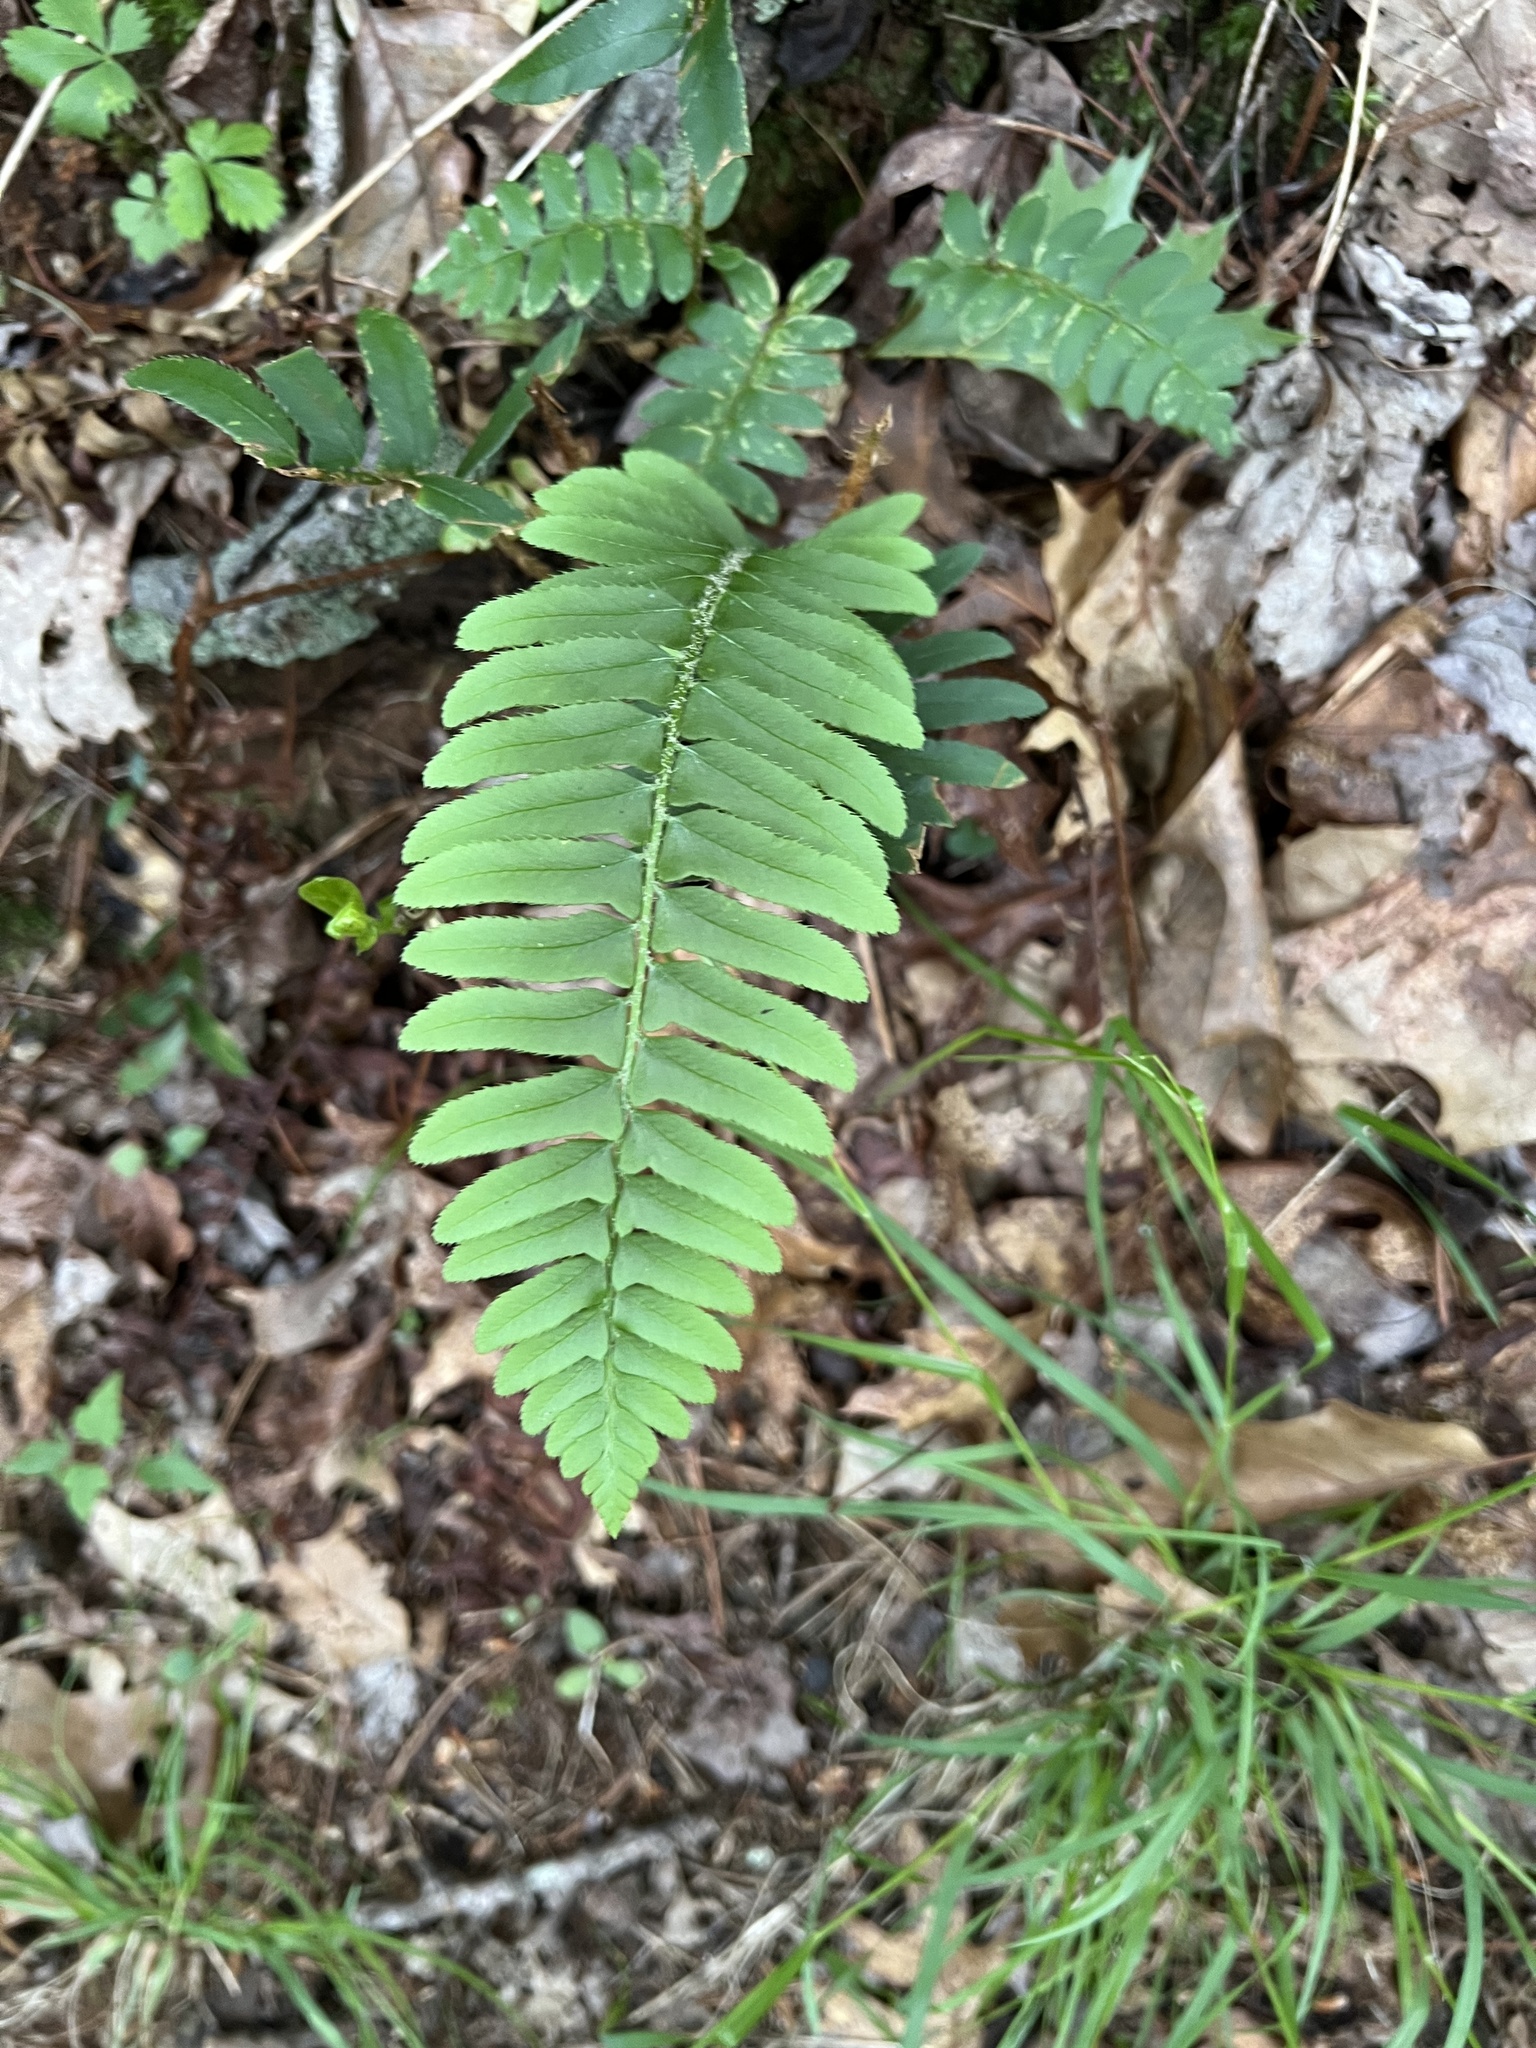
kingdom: Plantae
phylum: Tracheophyta
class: Polypodiopsida
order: Polypodiales
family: Dryopteridaceae
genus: Polystichum
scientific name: Polystichum acrostichoides
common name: Christmas fern
